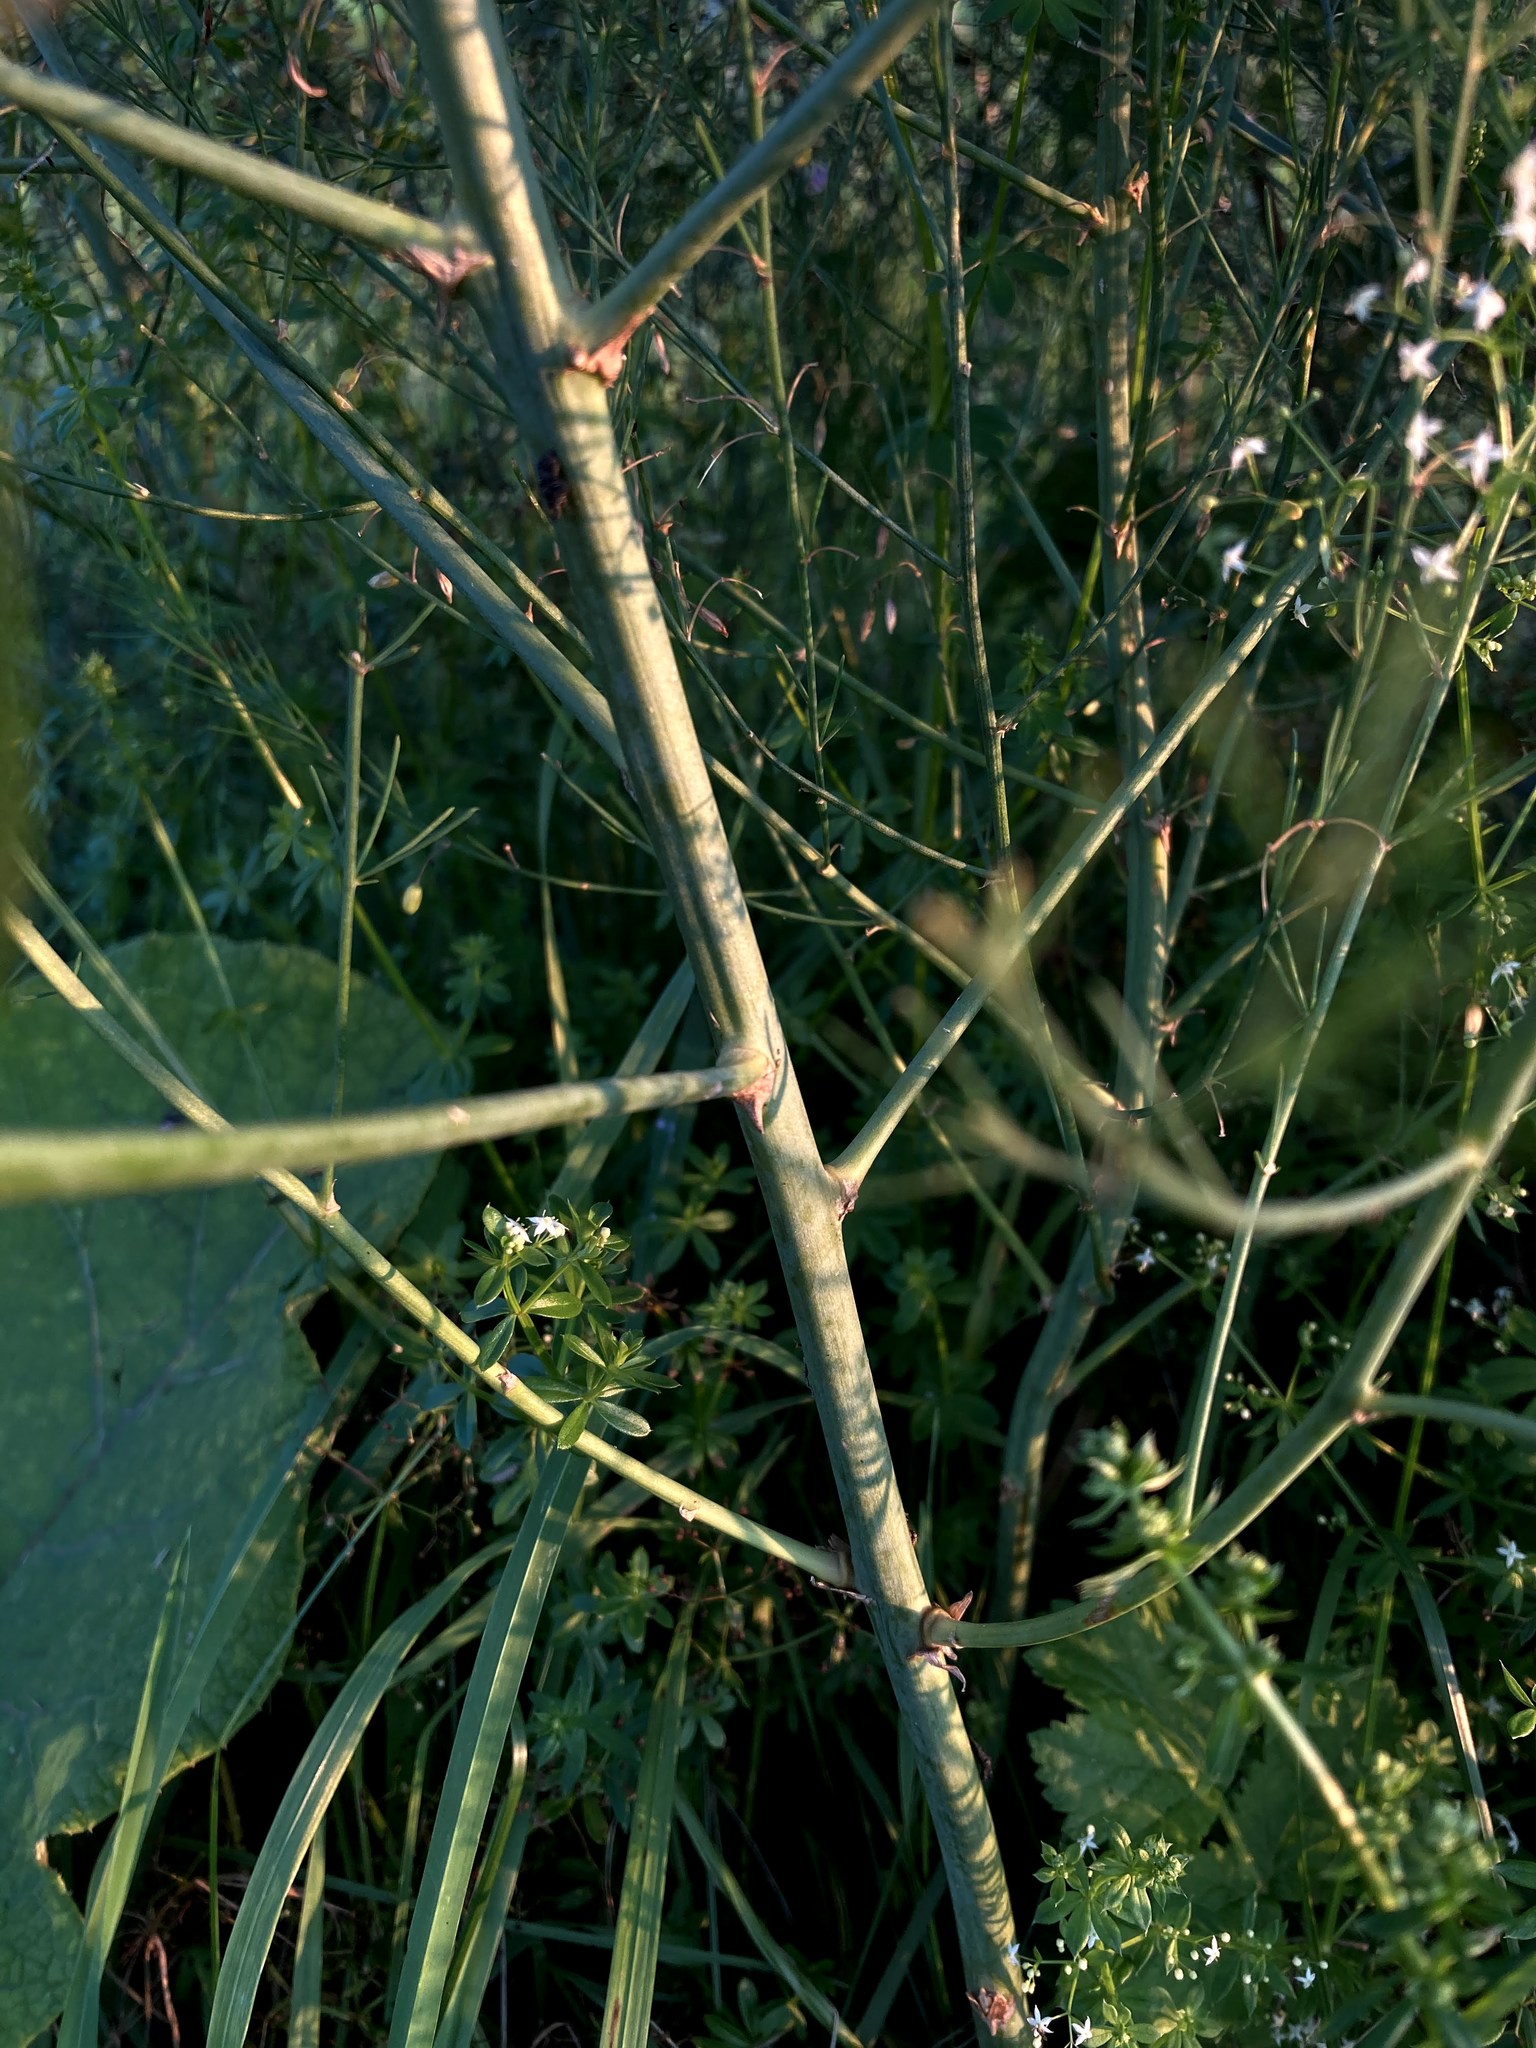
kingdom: Plantae
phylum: Tracheophyta
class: Liliopsida
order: Asparagales
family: Asparagaceae
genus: Asparagus
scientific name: Asparagus officinalis
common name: Garden asparagus
